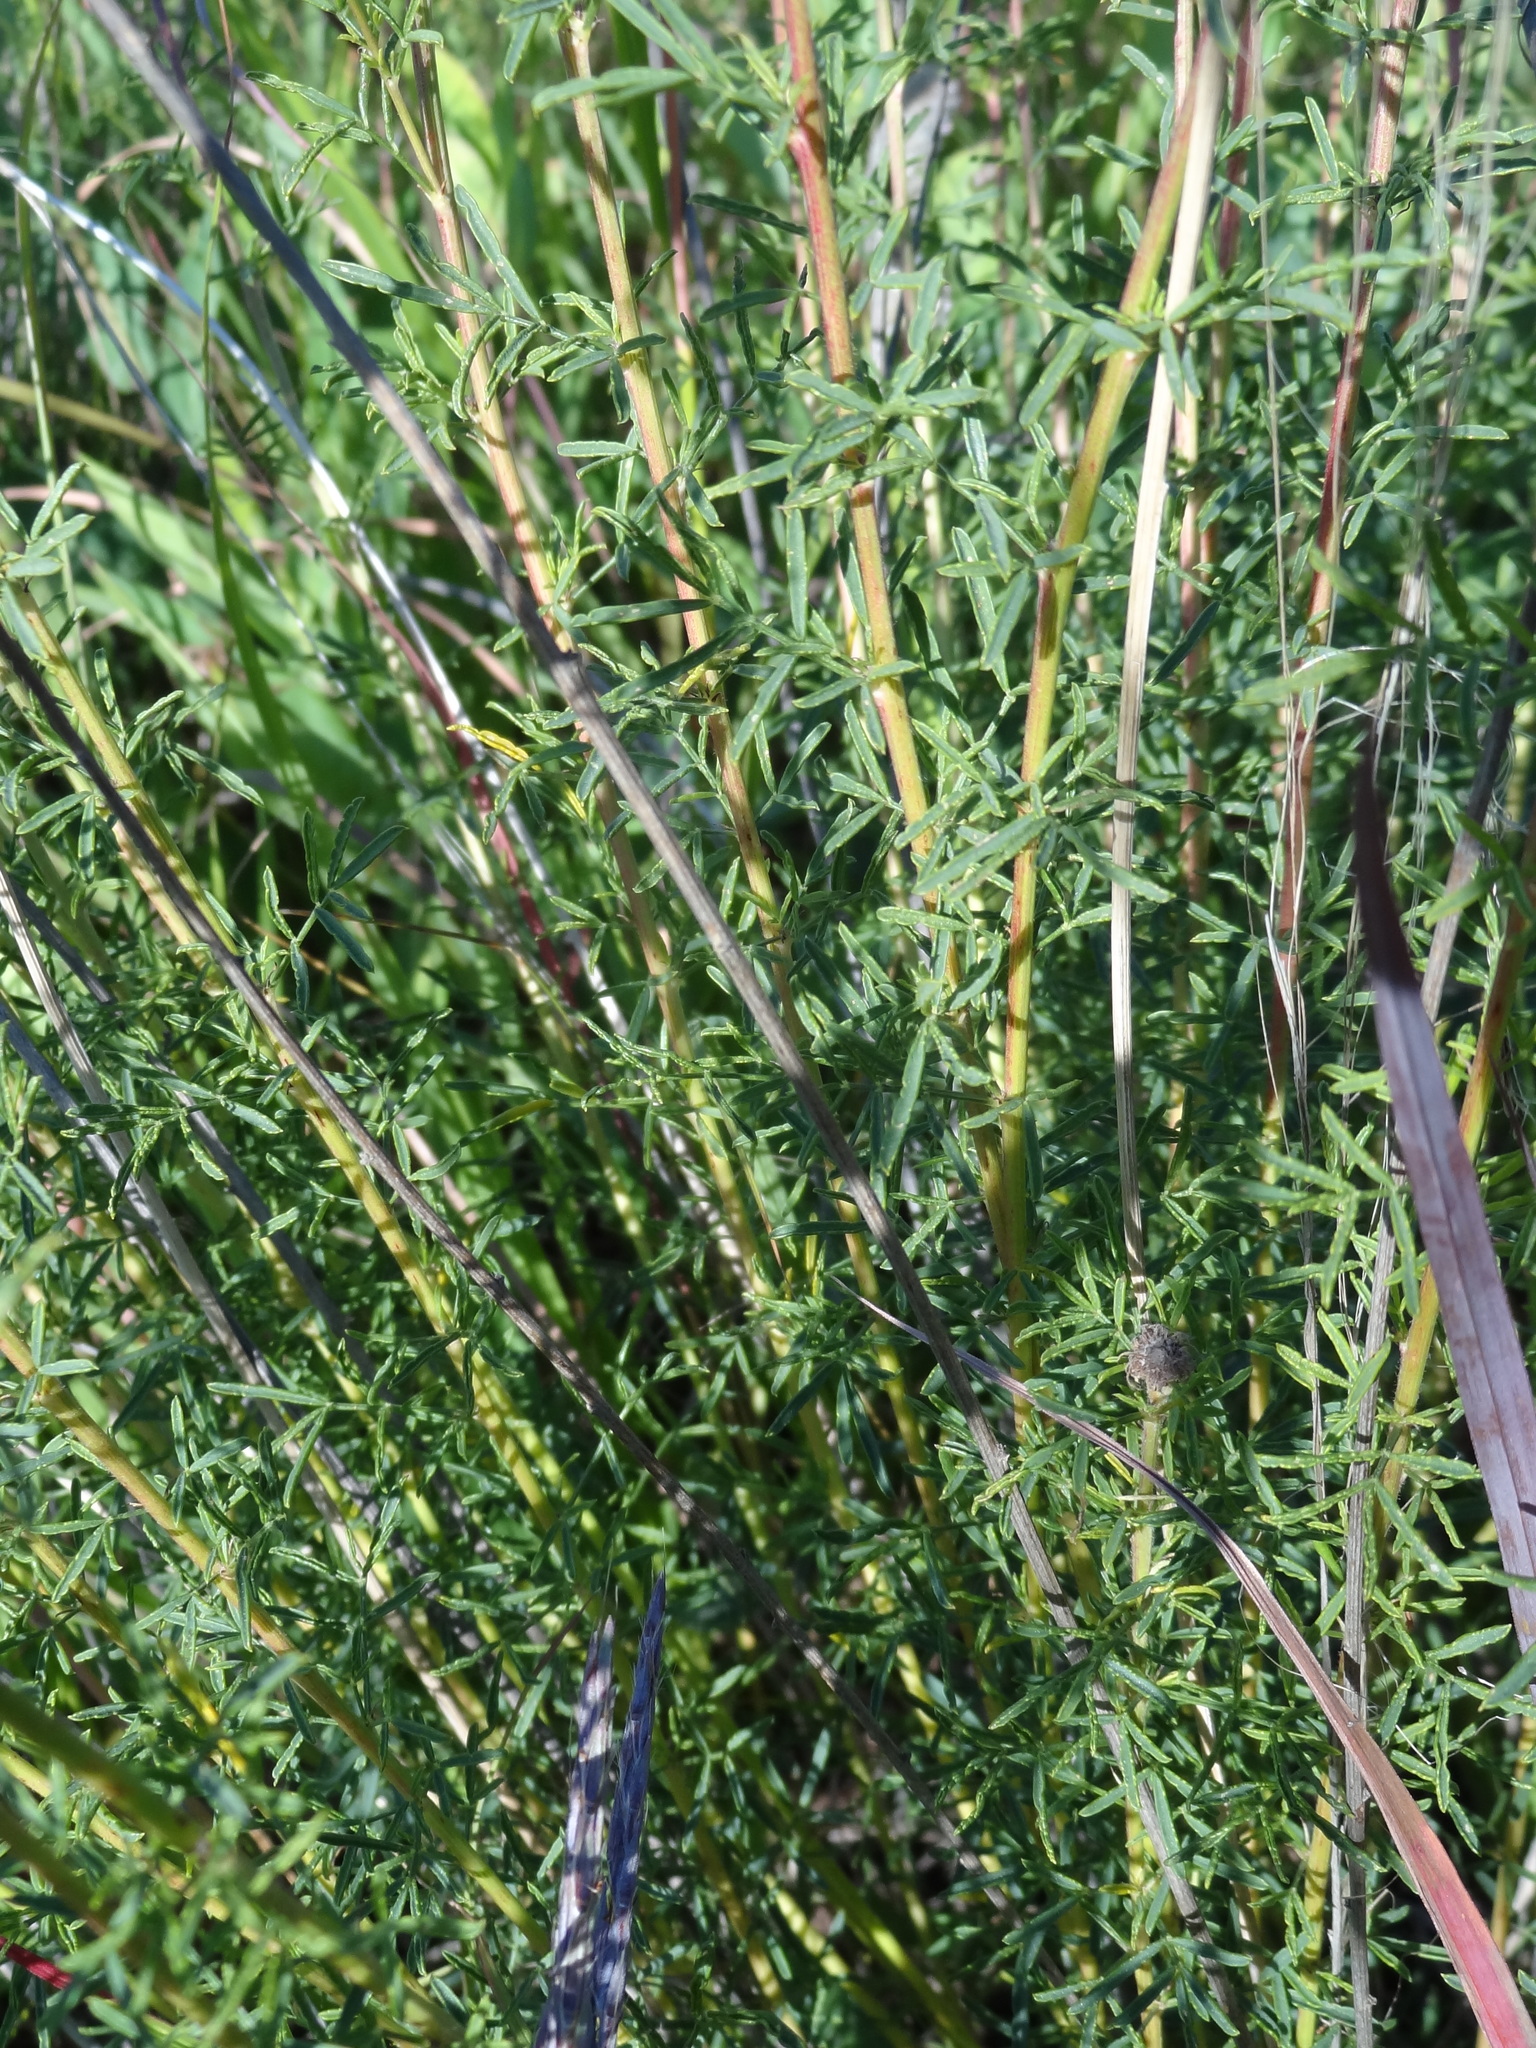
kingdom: Plantae
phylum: Tracheophyta
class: Magnoliopsida
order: Fabales
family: Fabaceae
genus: Dalea
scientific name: Dalea purpurea
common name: Purple prairie-clover
